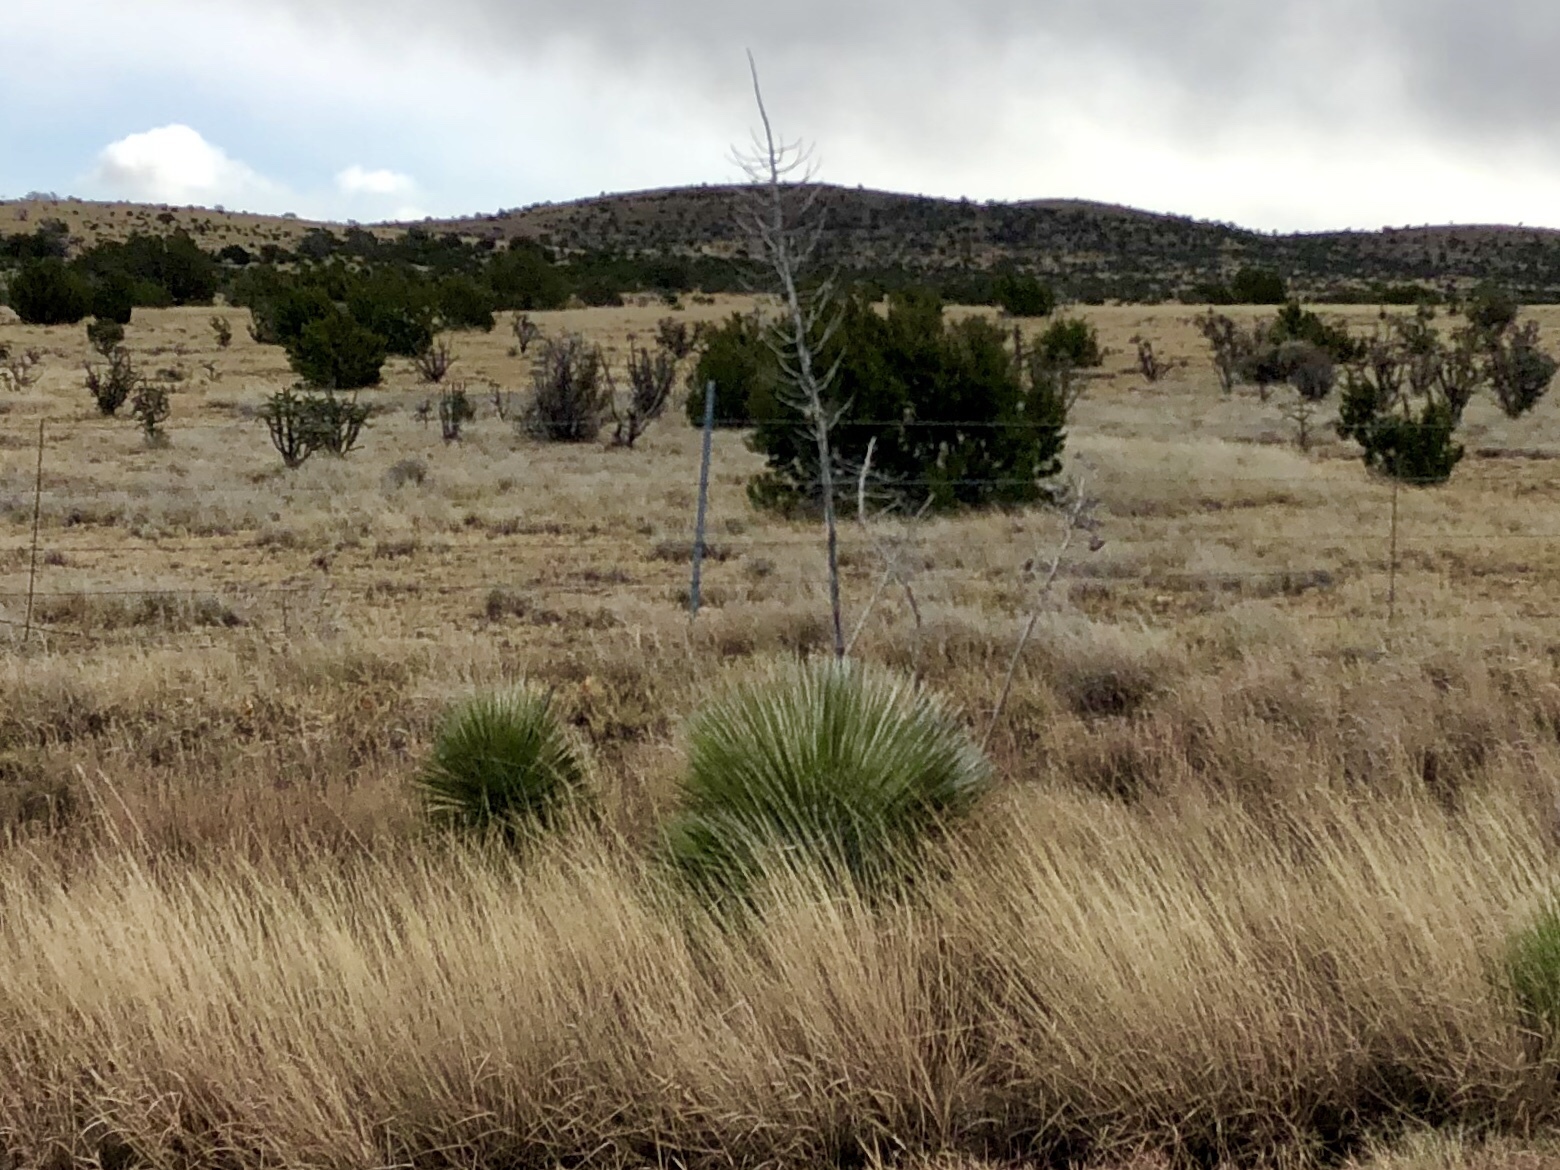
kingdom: Plantae
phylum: Tracheophyta
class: Liliopsida
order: Asparagales
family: Asparagaceae
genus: Yucca
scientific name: Yucca elata
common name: Palmella
